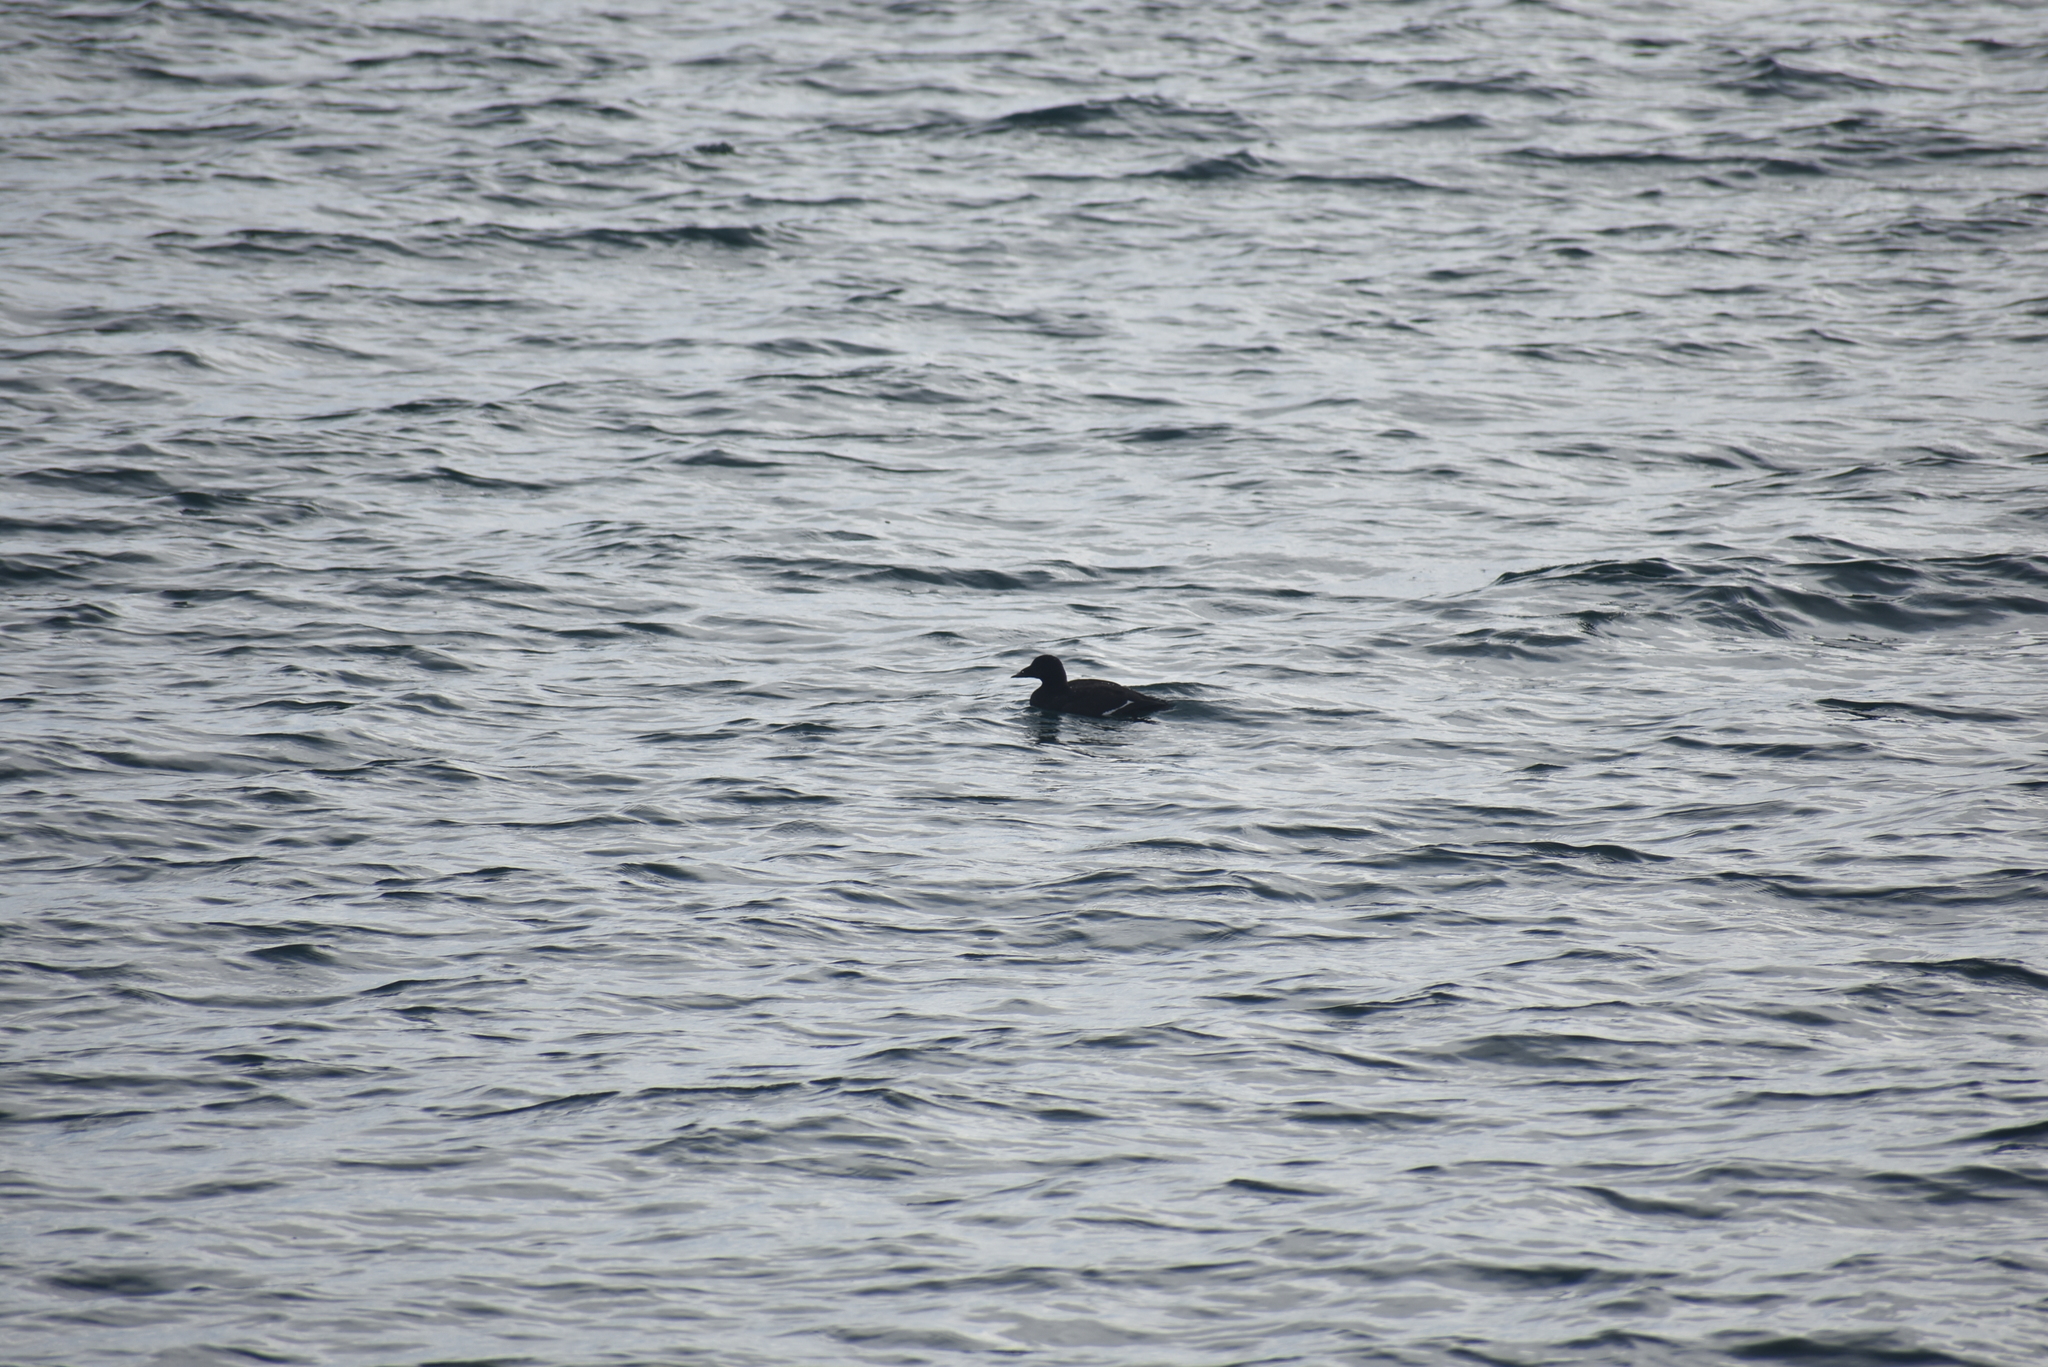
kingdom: Animalia
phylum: Chordata
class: Aves
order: Anseriformes
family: Anatidae
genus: Melanitta
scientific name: Melanitta deglandi
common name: White-winged scoter
